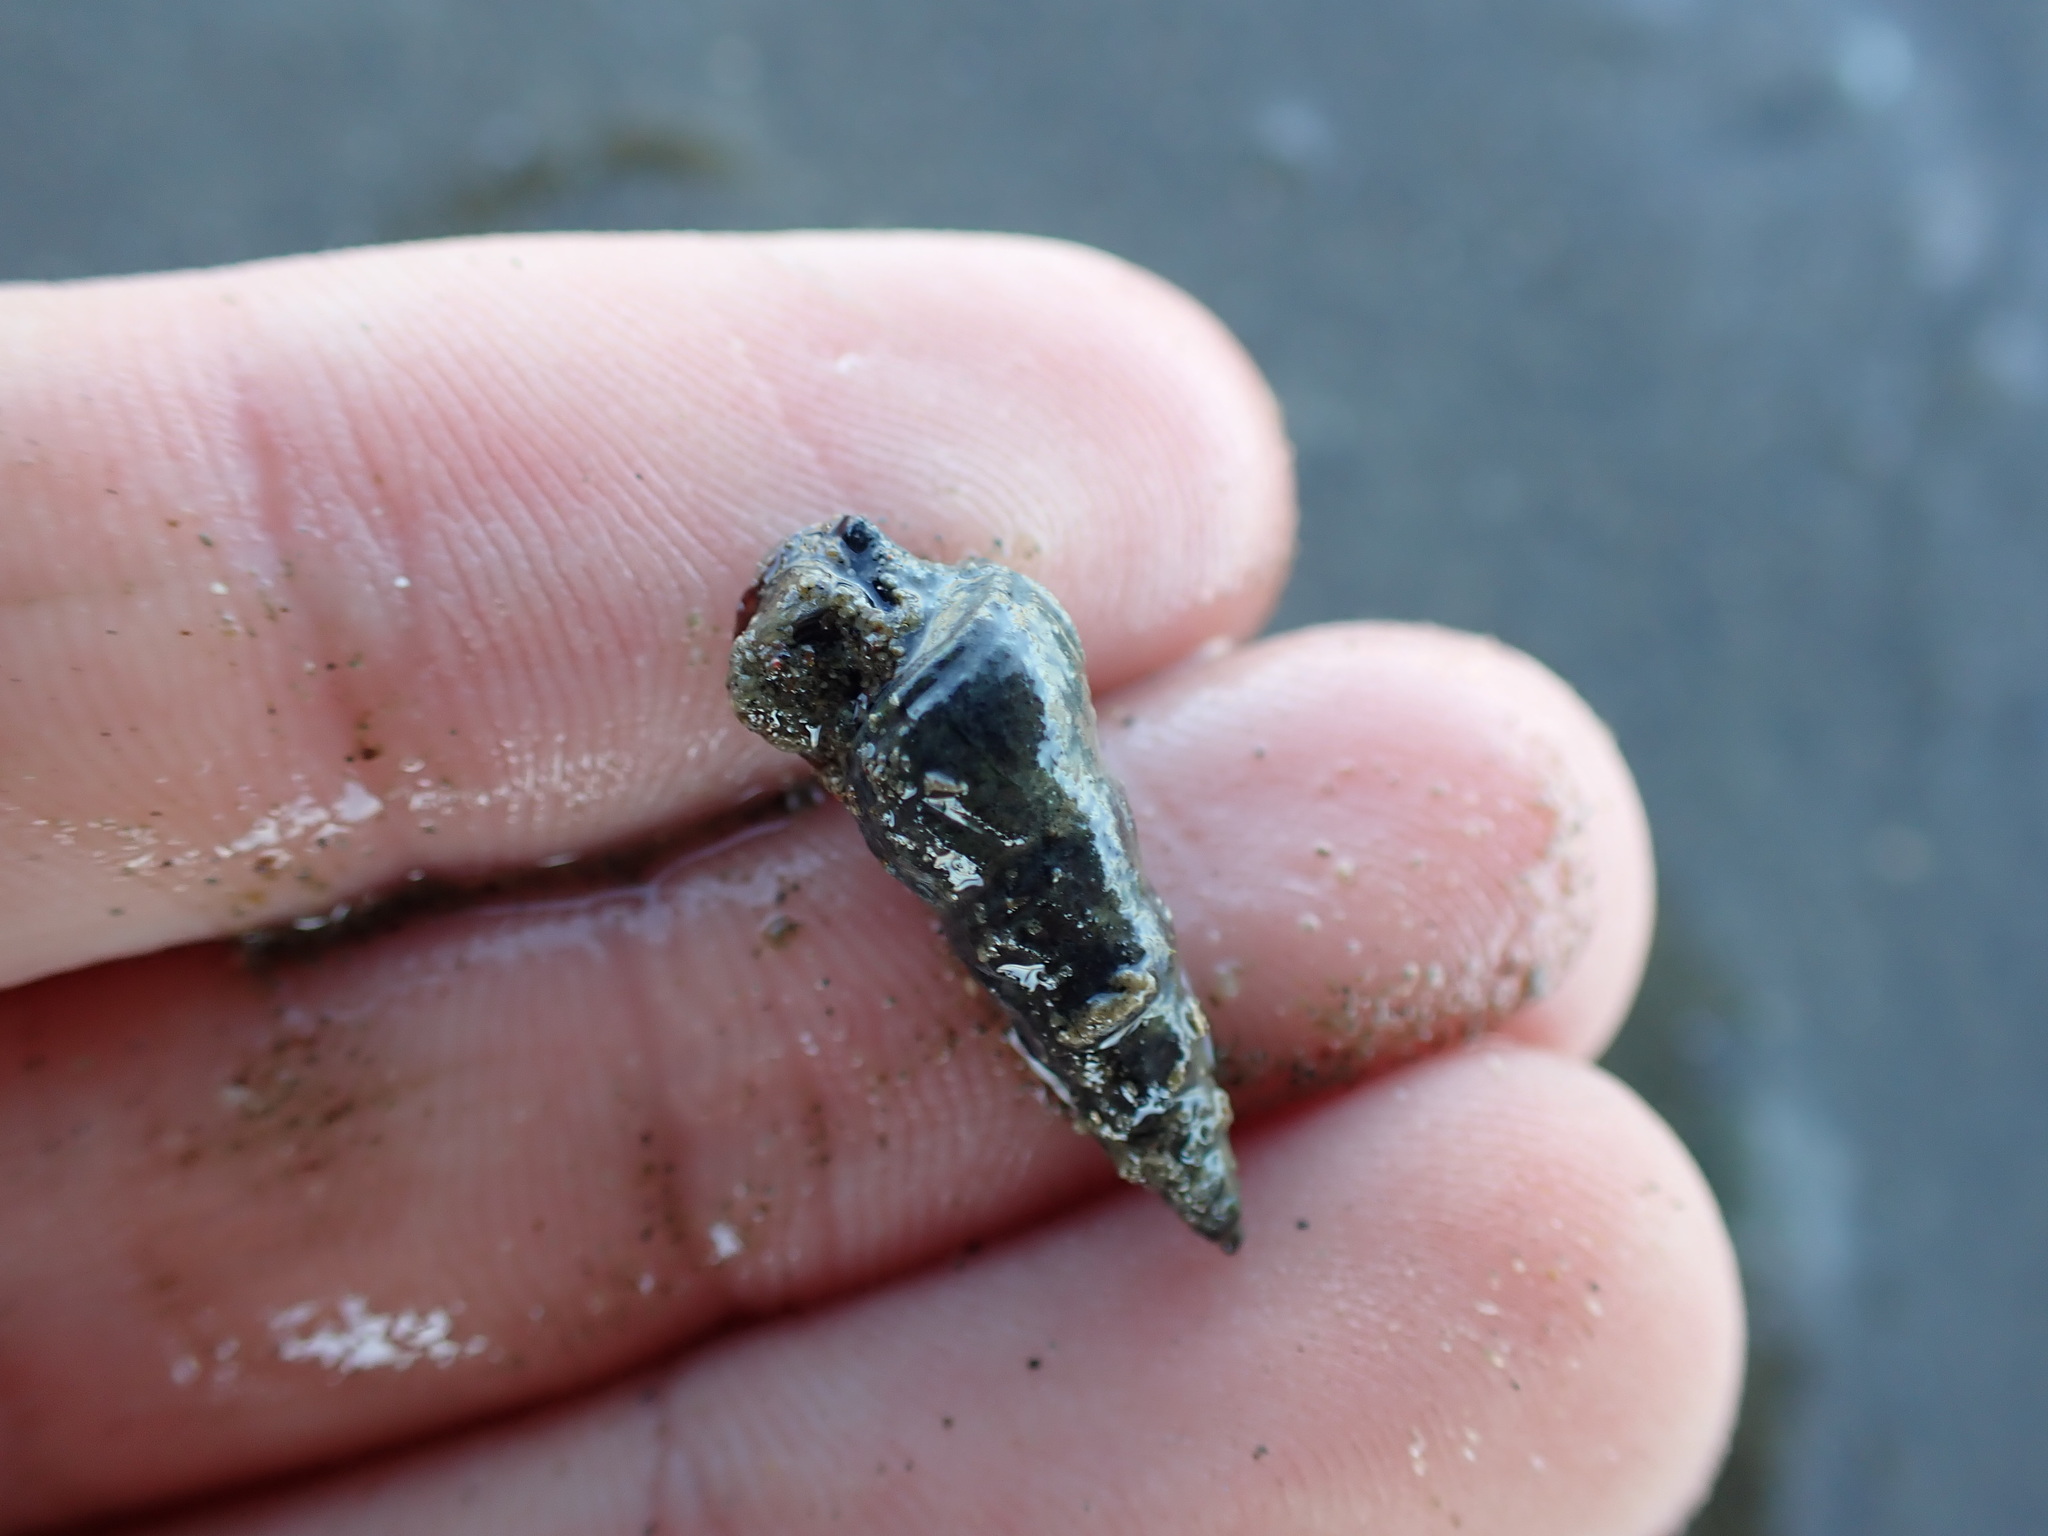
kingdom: Animalia
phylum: Mollusca
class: Gastropoda
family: Batillariidae
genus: Zeacumantus
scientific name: Zeacumantus lutulentus
